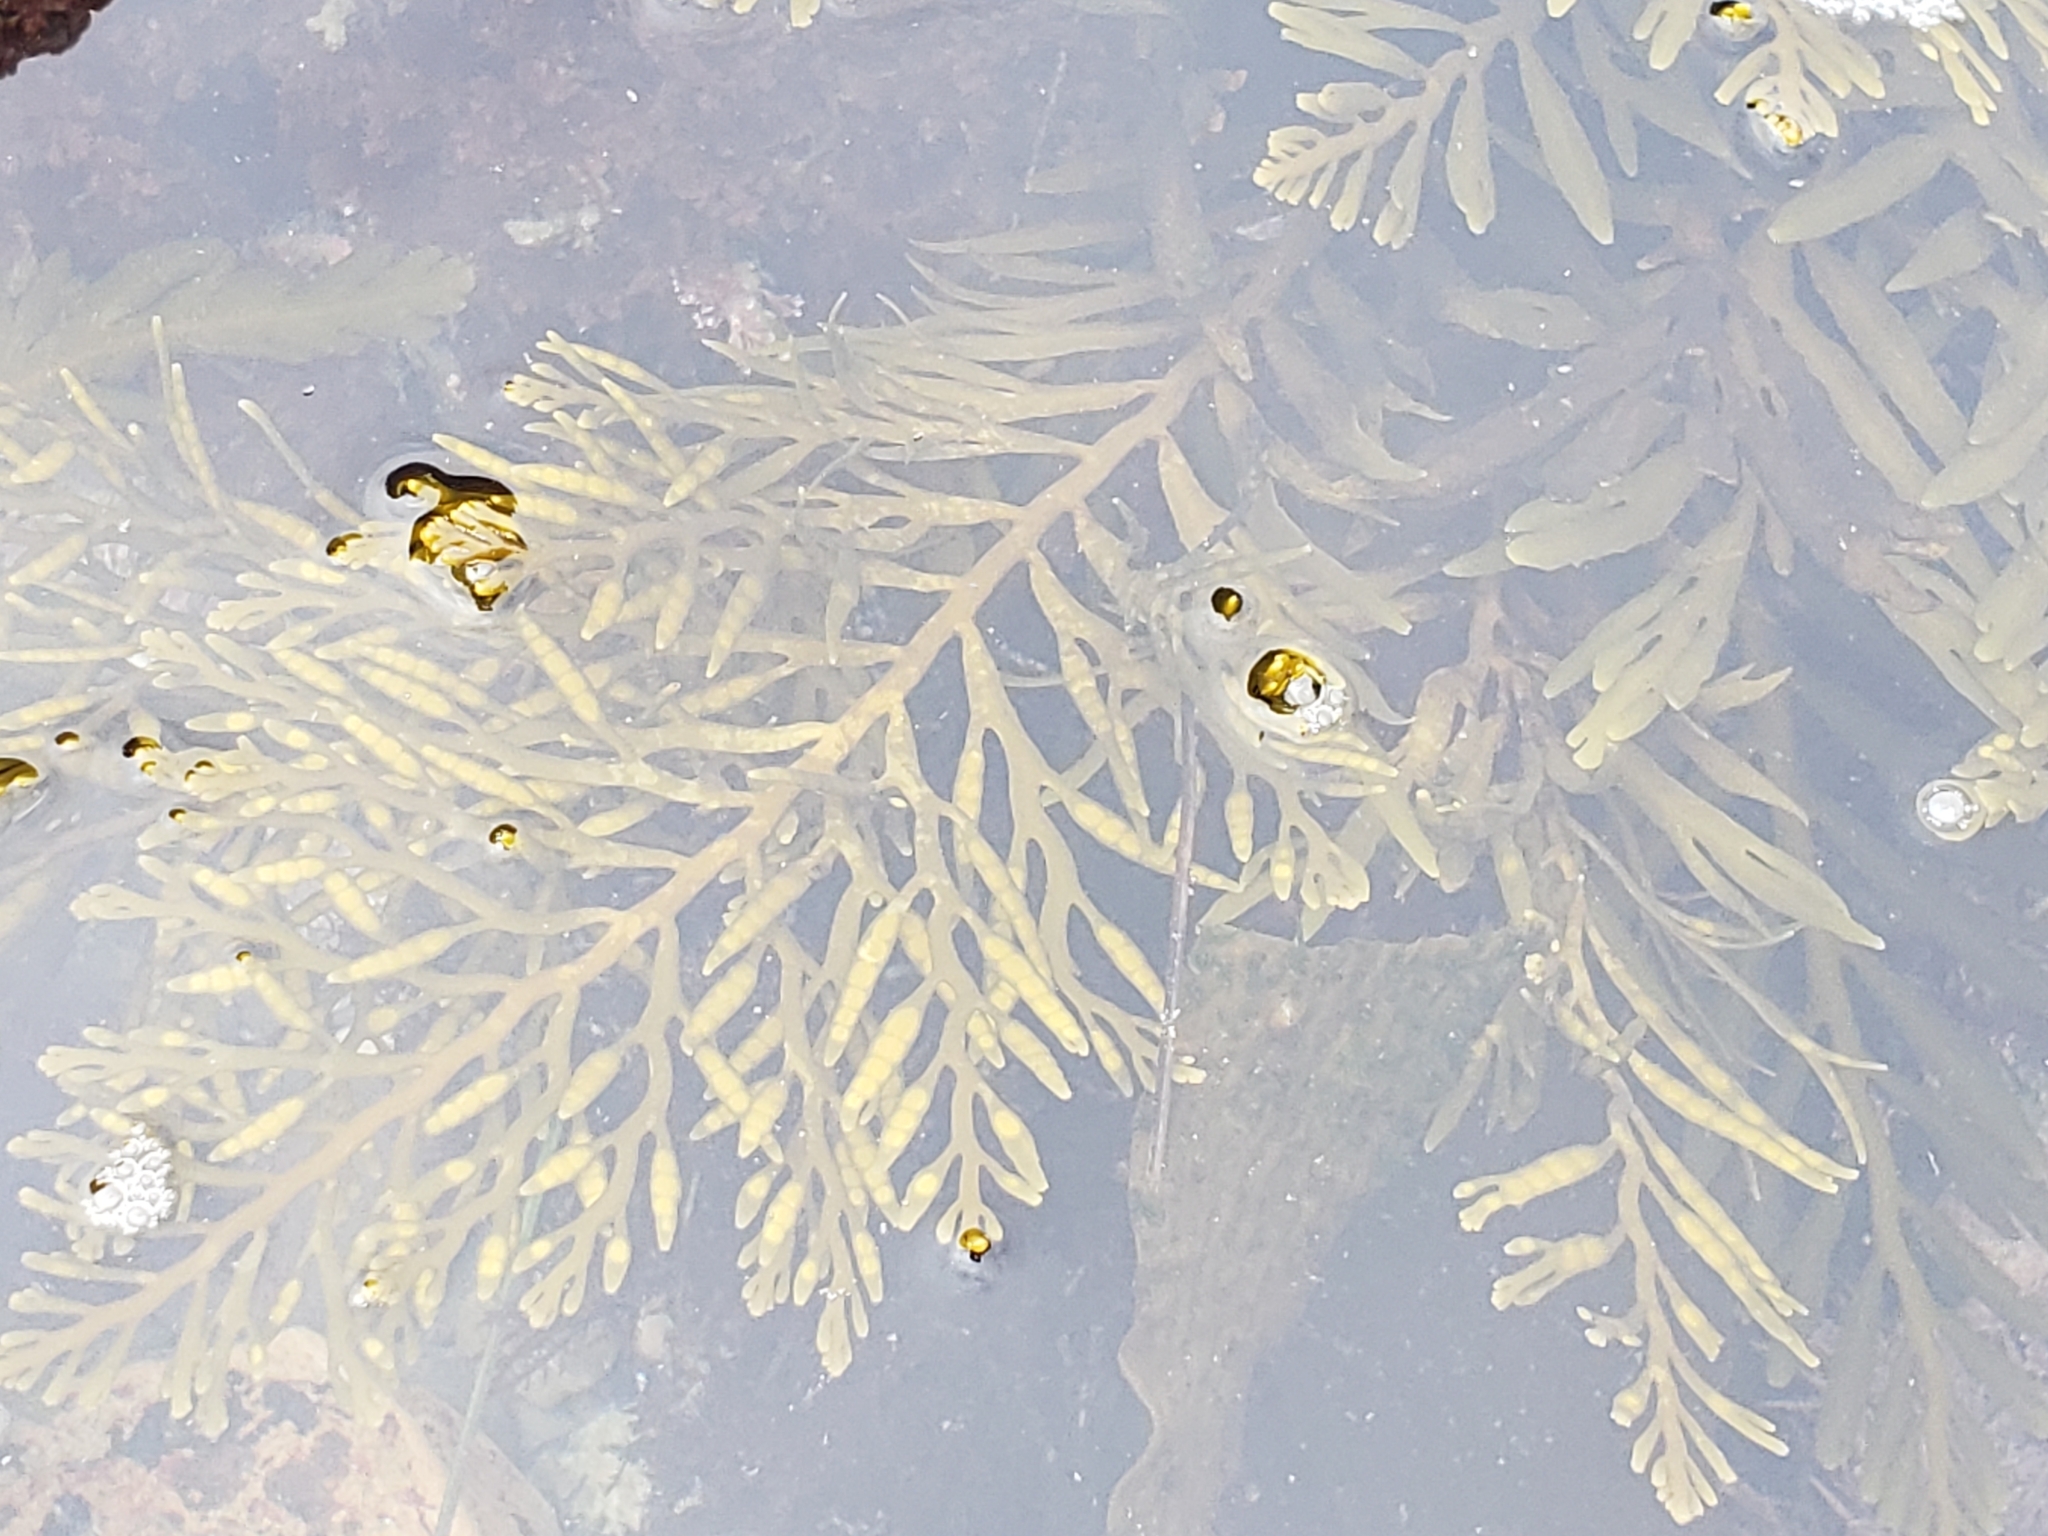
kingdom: Chromista
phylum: Ochrophyta
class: Phaeophyceae
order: Fucales
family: Sargassaceae
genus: Stephanocystis
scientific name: Stephanocystis
